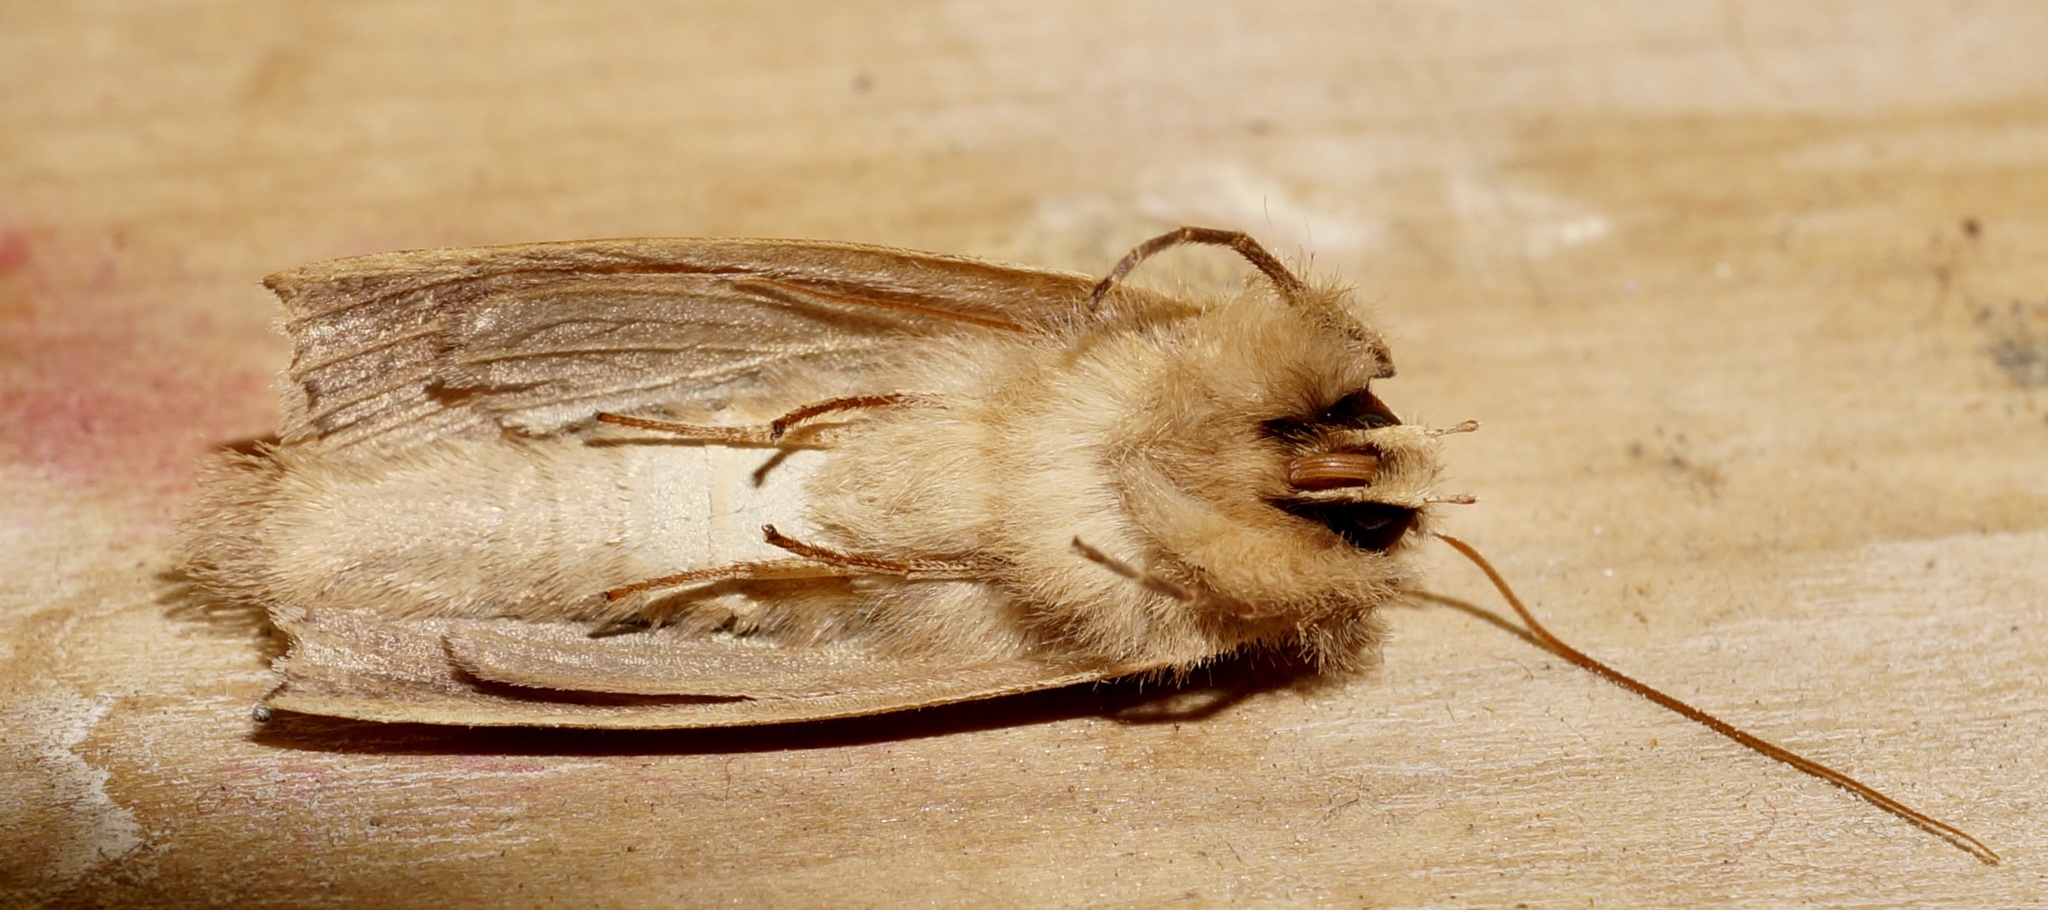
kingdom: Animalia
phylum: Arthropoda
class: Insecta
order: Lepidoptera
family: Geometridae
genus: Declana
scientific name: Declana leptomera
